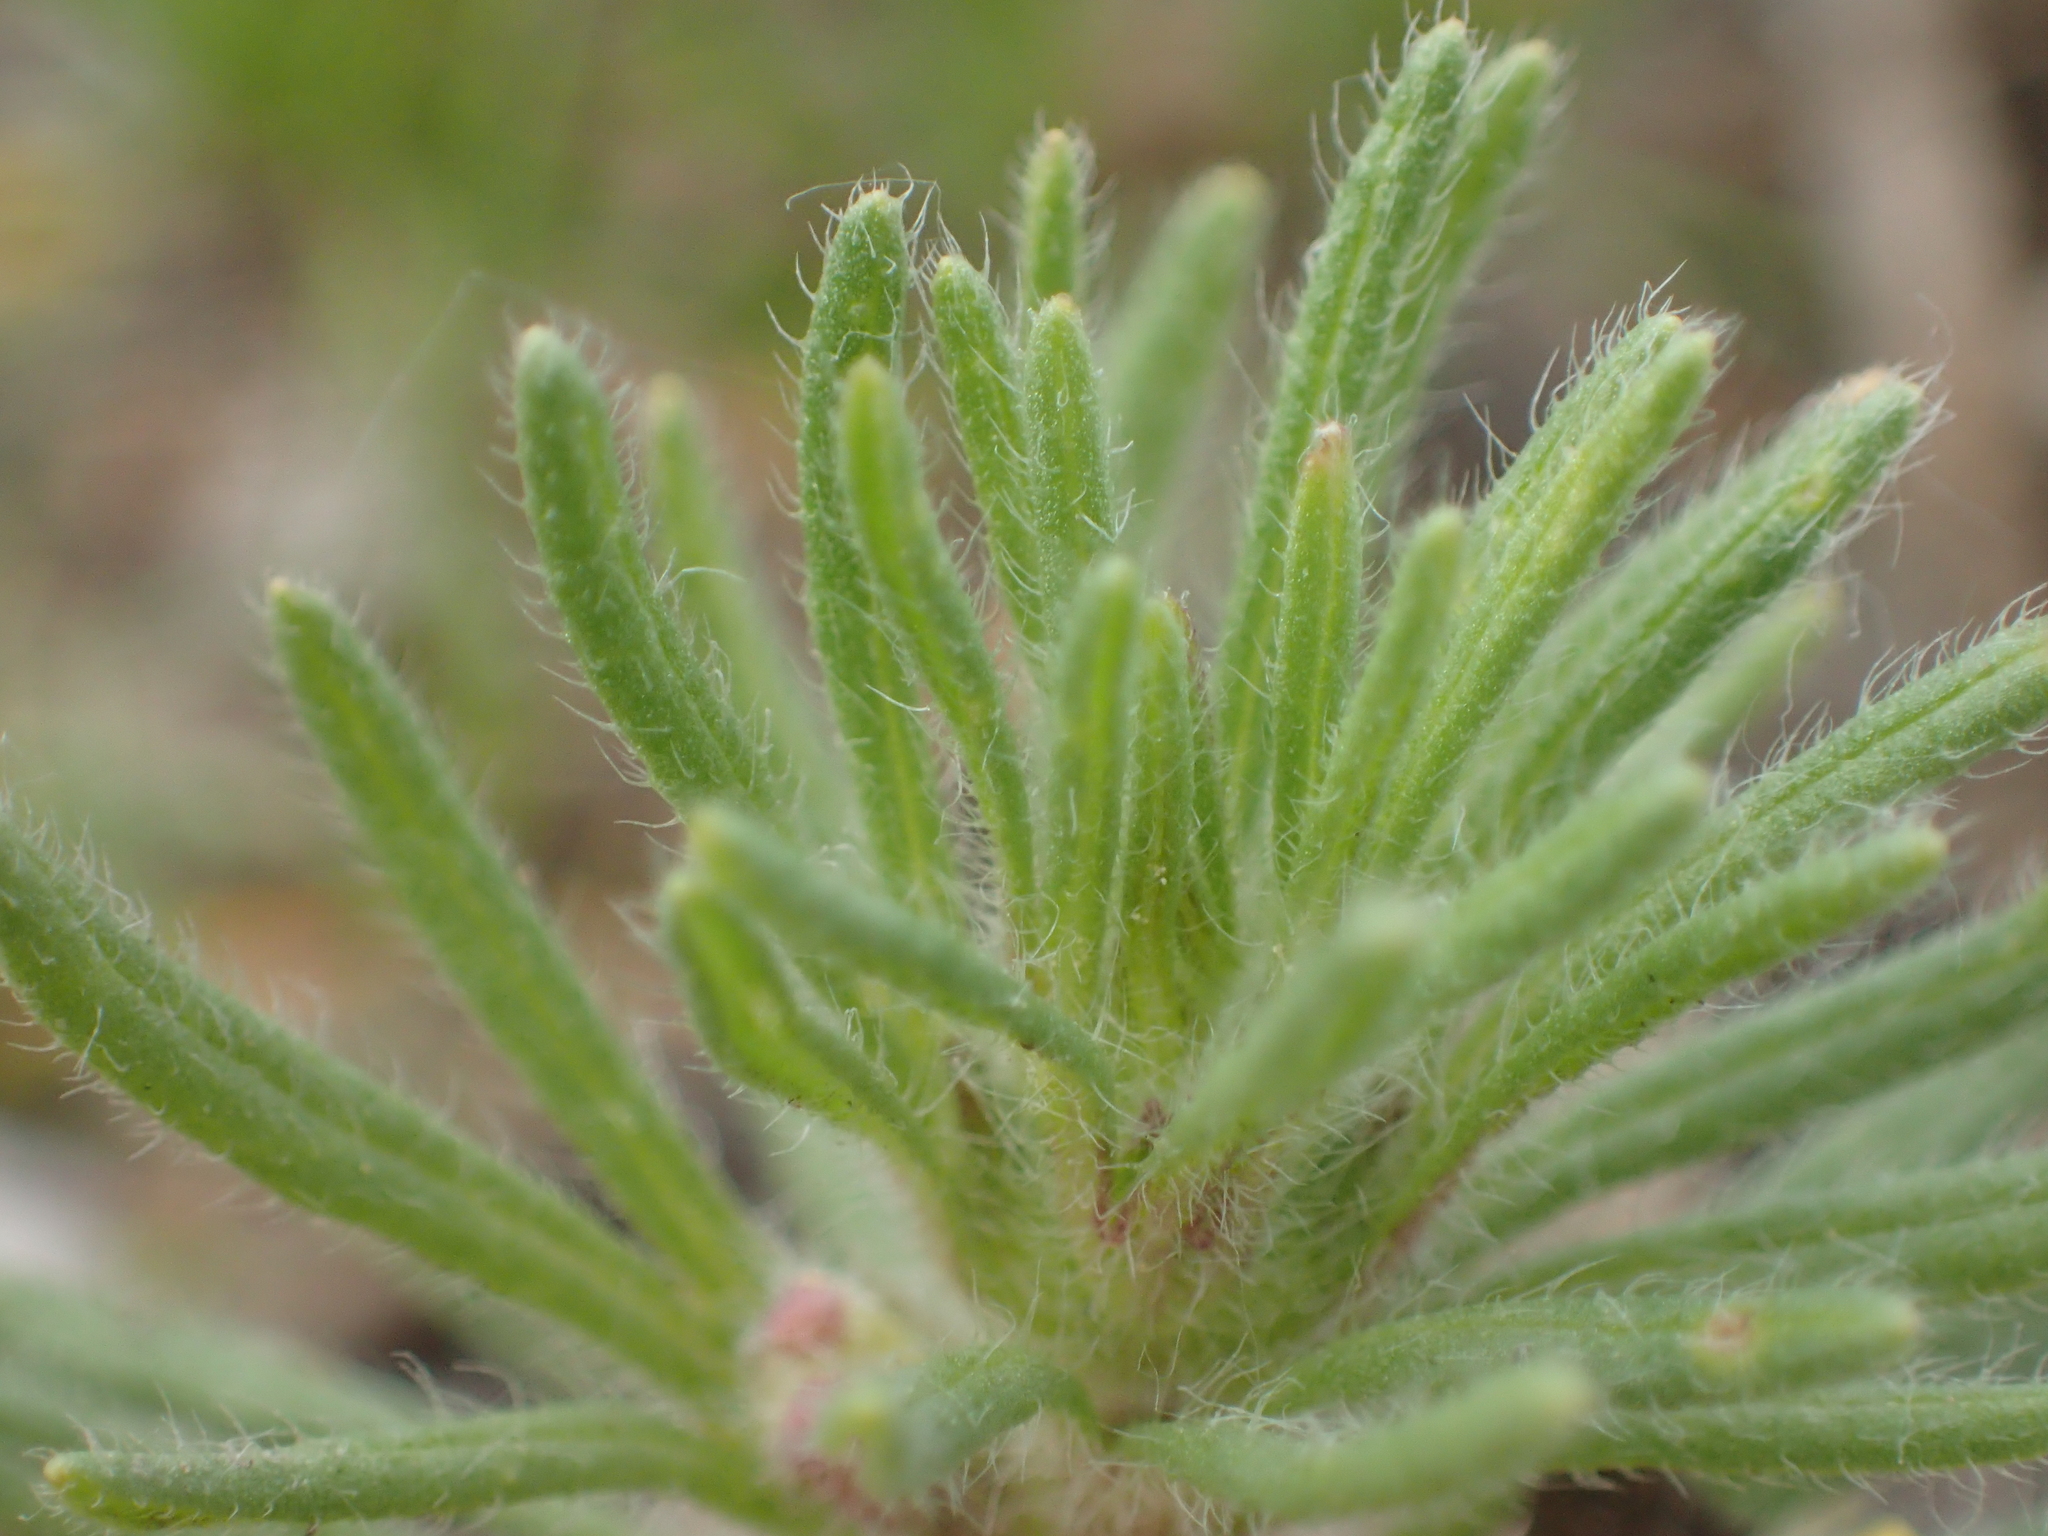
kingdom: Plantae
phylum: Tracheophyta
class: Magnoliopsida
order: Lamiales
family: Lamiaceae
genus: Ajuga
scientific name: Ajuga chamaepitys
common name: Ground-pine
